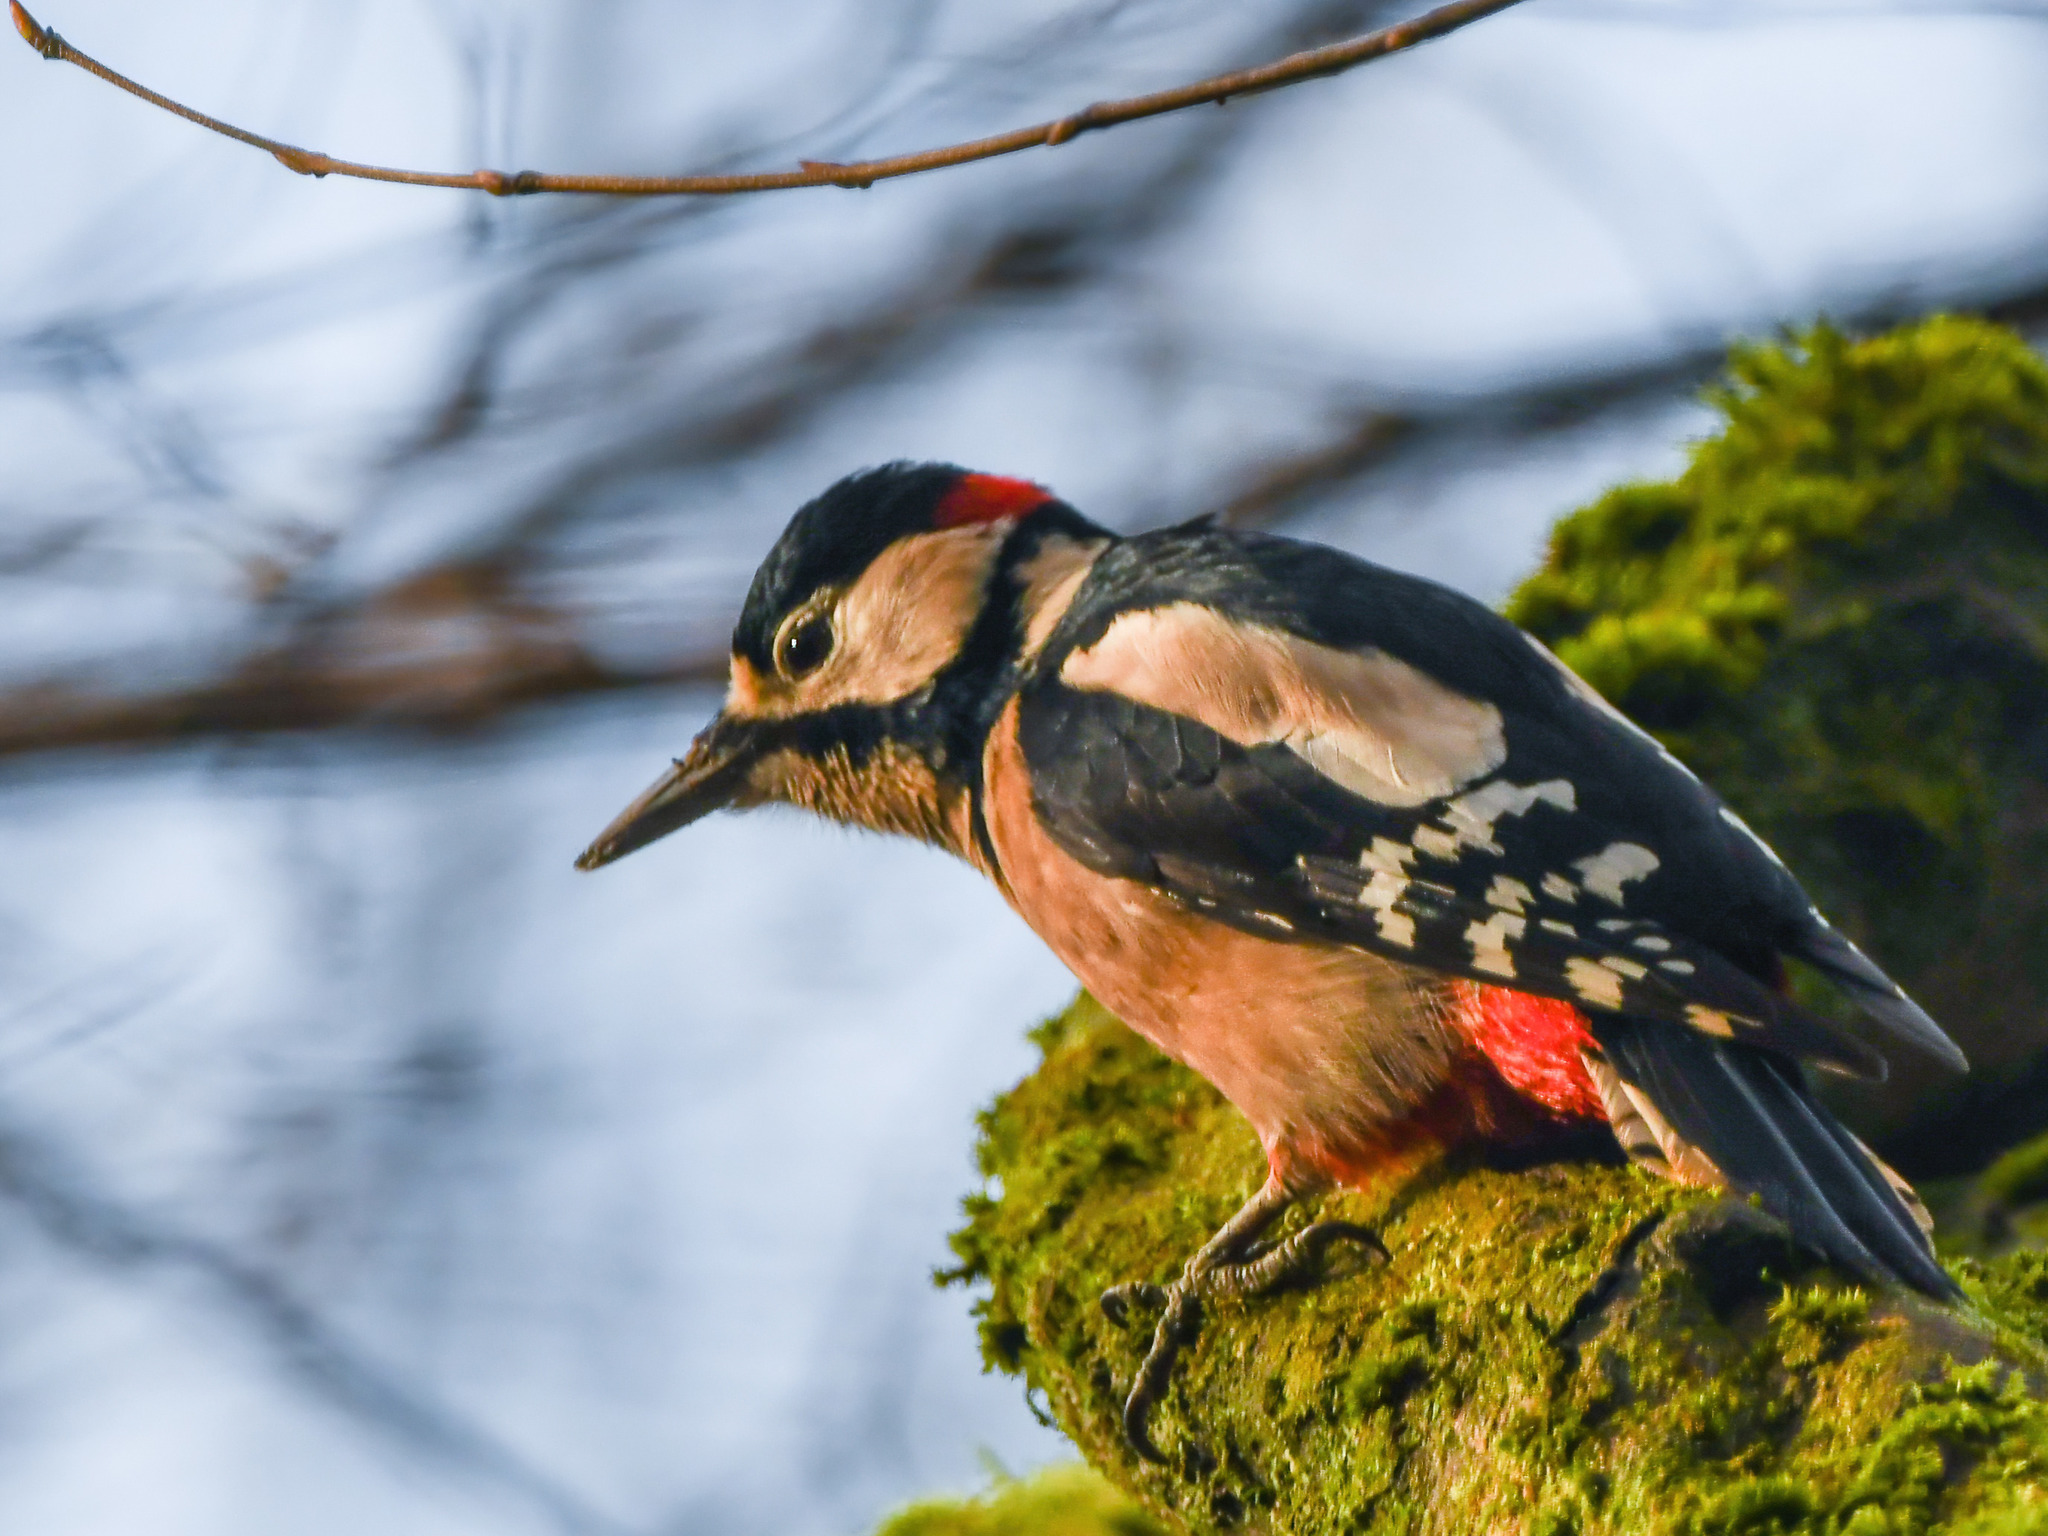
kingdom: Animalia
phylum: Chordata
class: Aves
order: Piciformes
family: Picidae
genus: Dendrocopos
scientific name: Dendrocopos major
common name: Great spotted woodpecker
